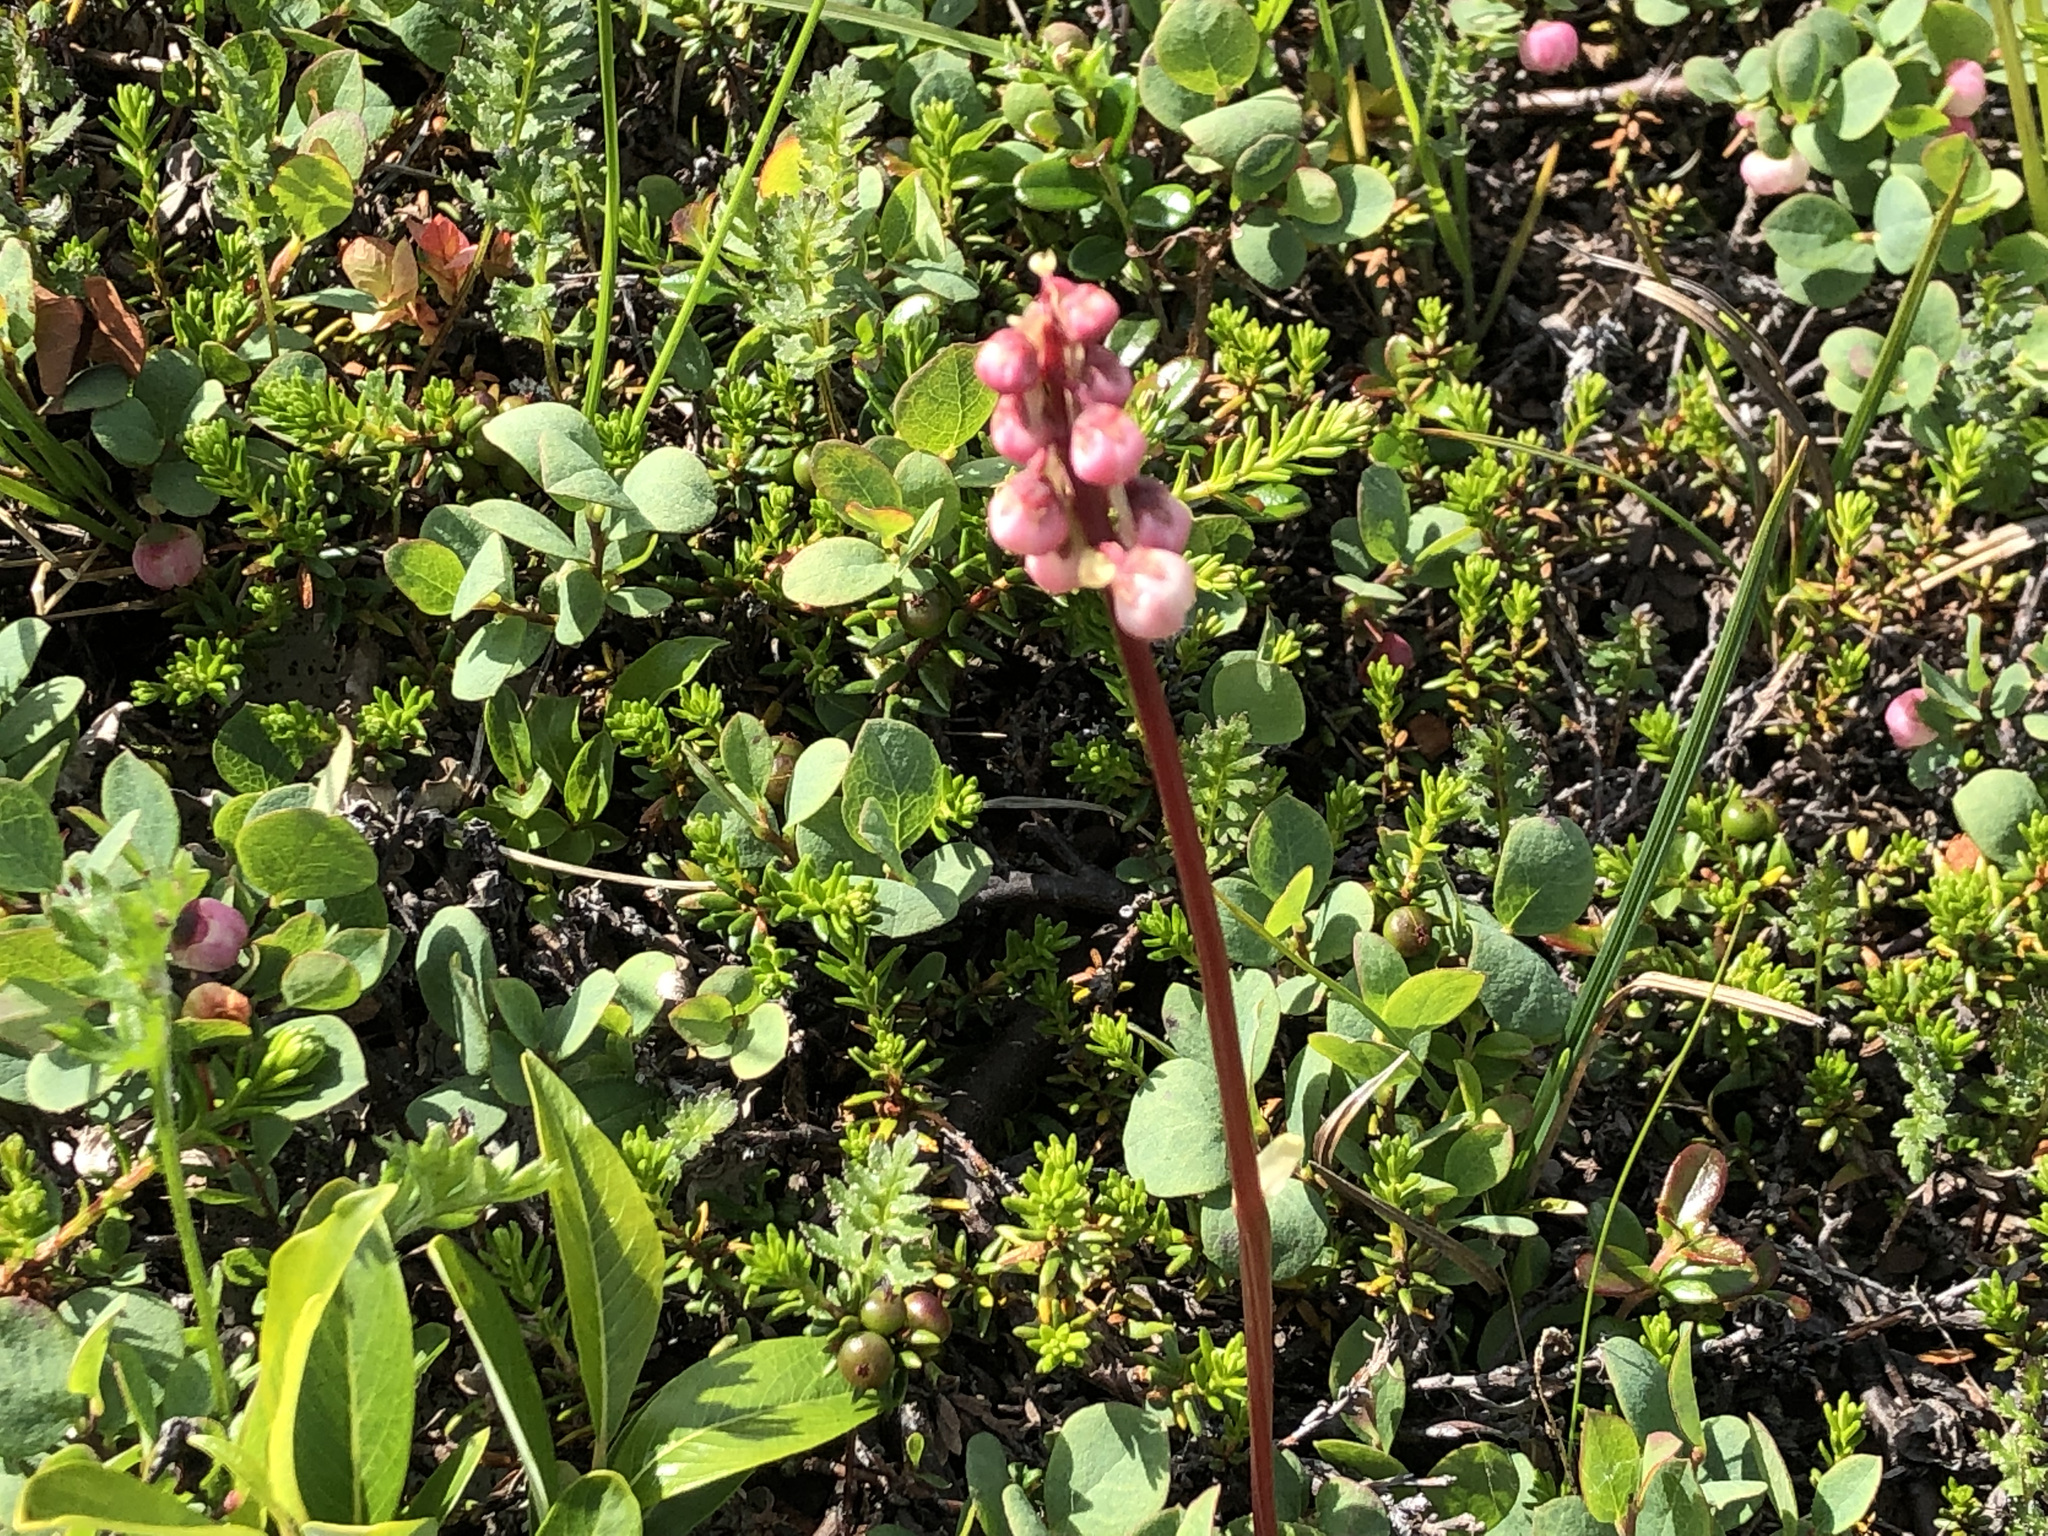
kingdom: Plantae
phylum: Tracheophyta
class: Magnoliopsida
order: Ericales
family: Ericaceae
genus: Pyrola
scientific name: Pyrola minor
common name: Common wintergreen
